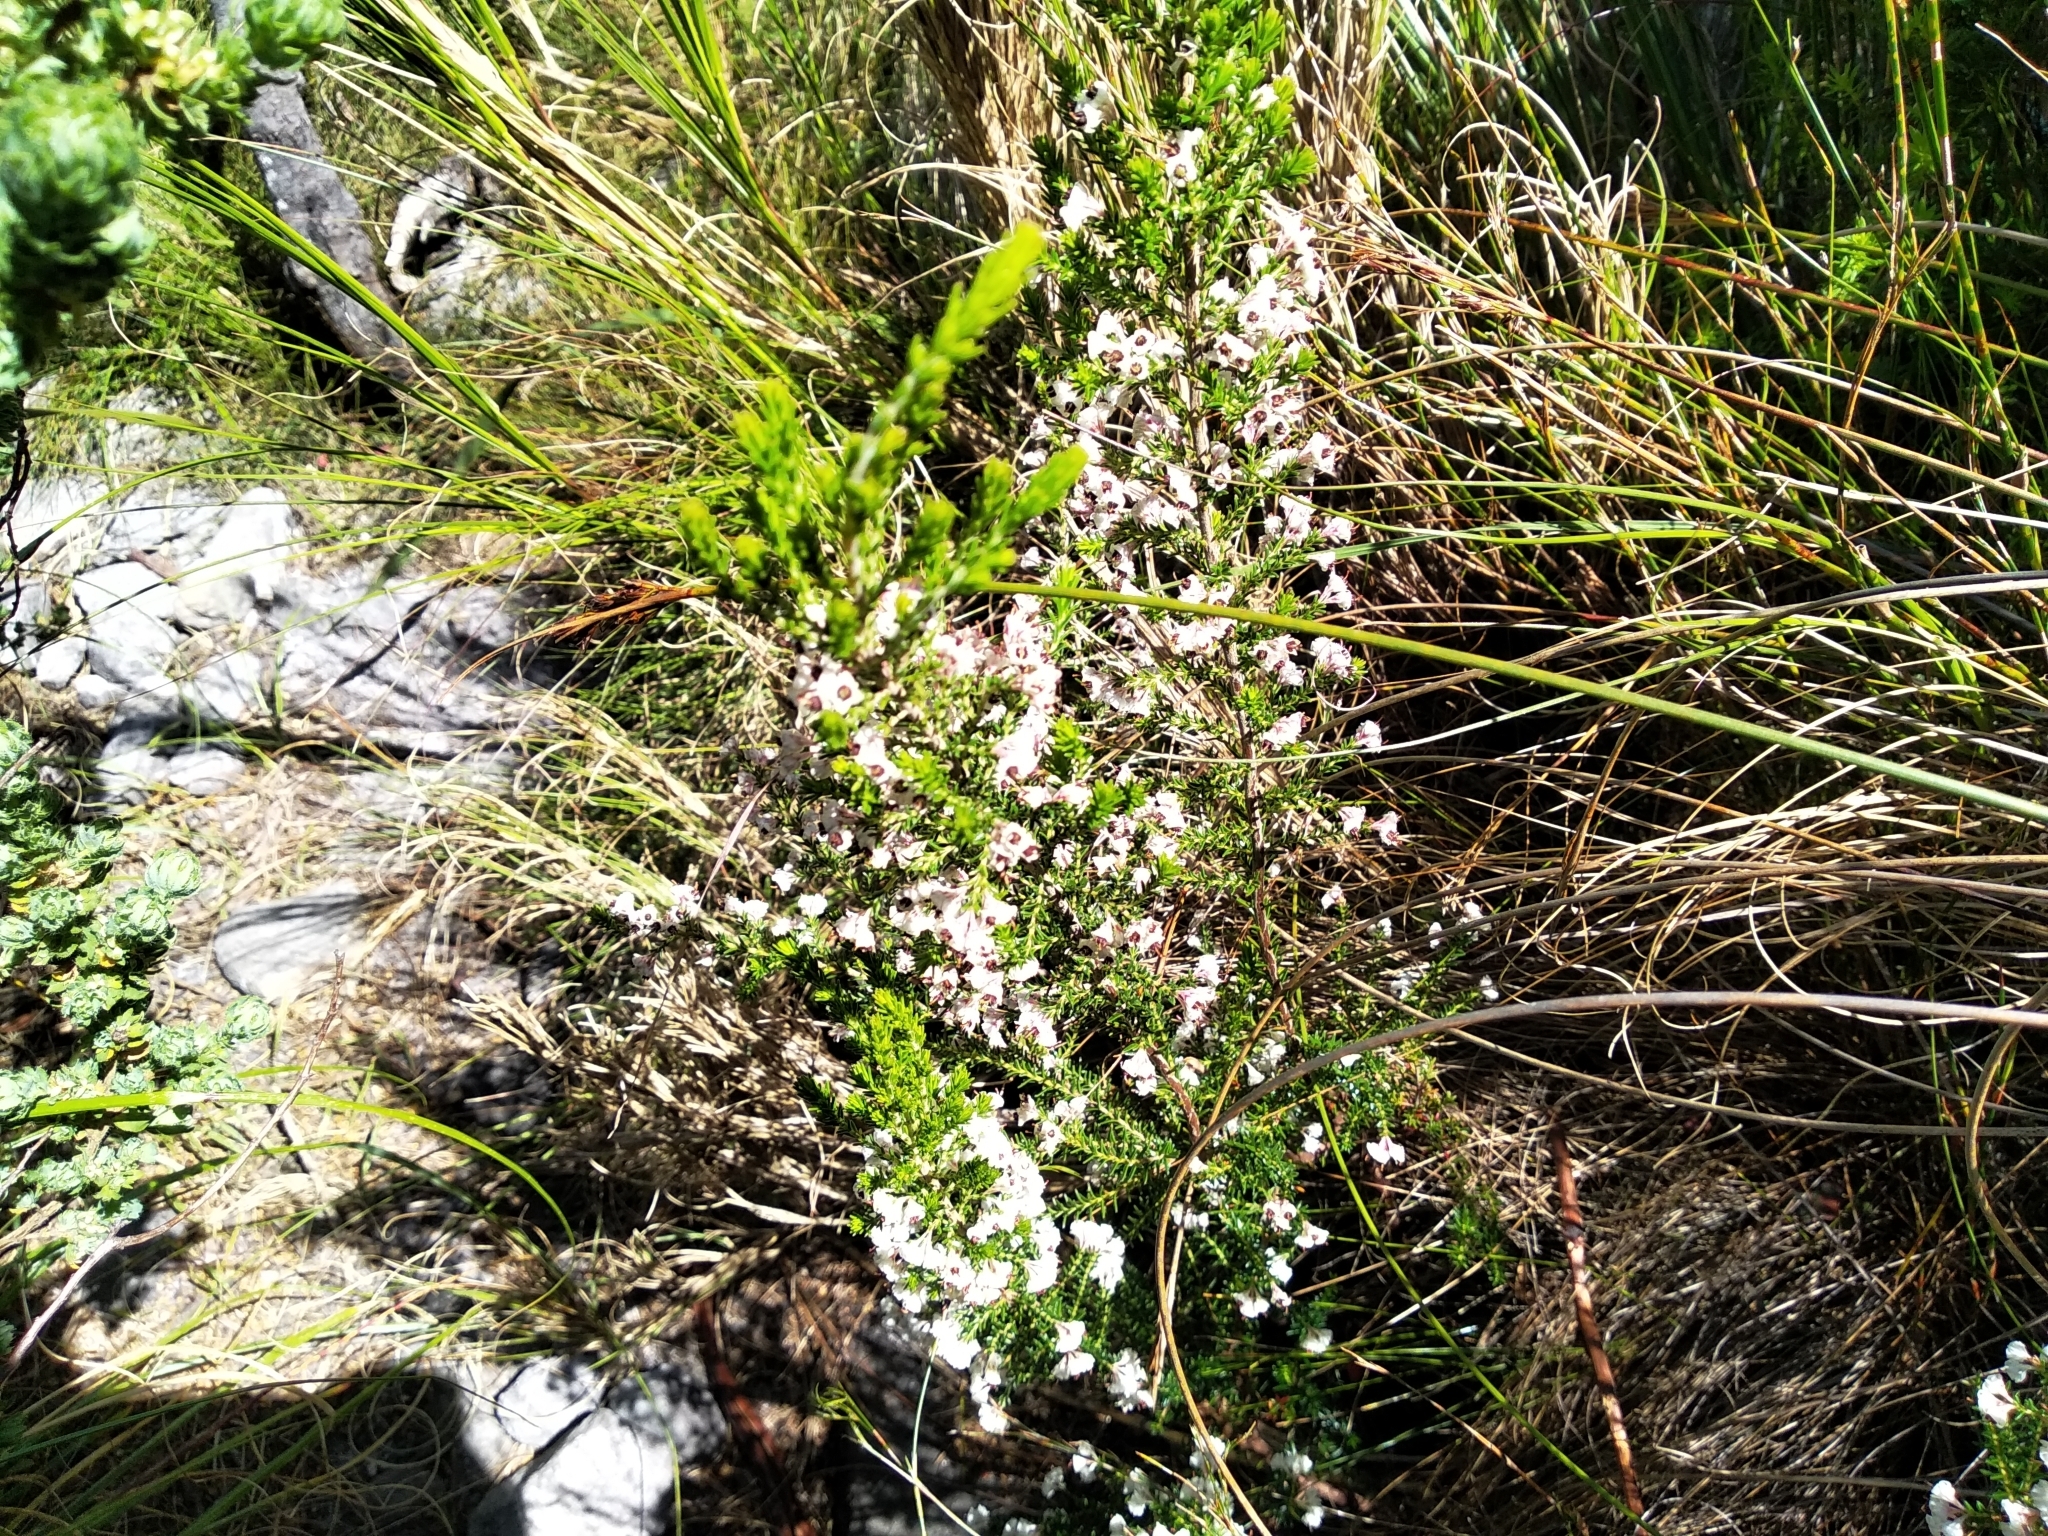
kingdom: Plantae
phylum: Tracheophyta
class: Magnoliopsida
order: Ericales
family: Ericaceae
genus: Erica
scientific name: Erica calycina
